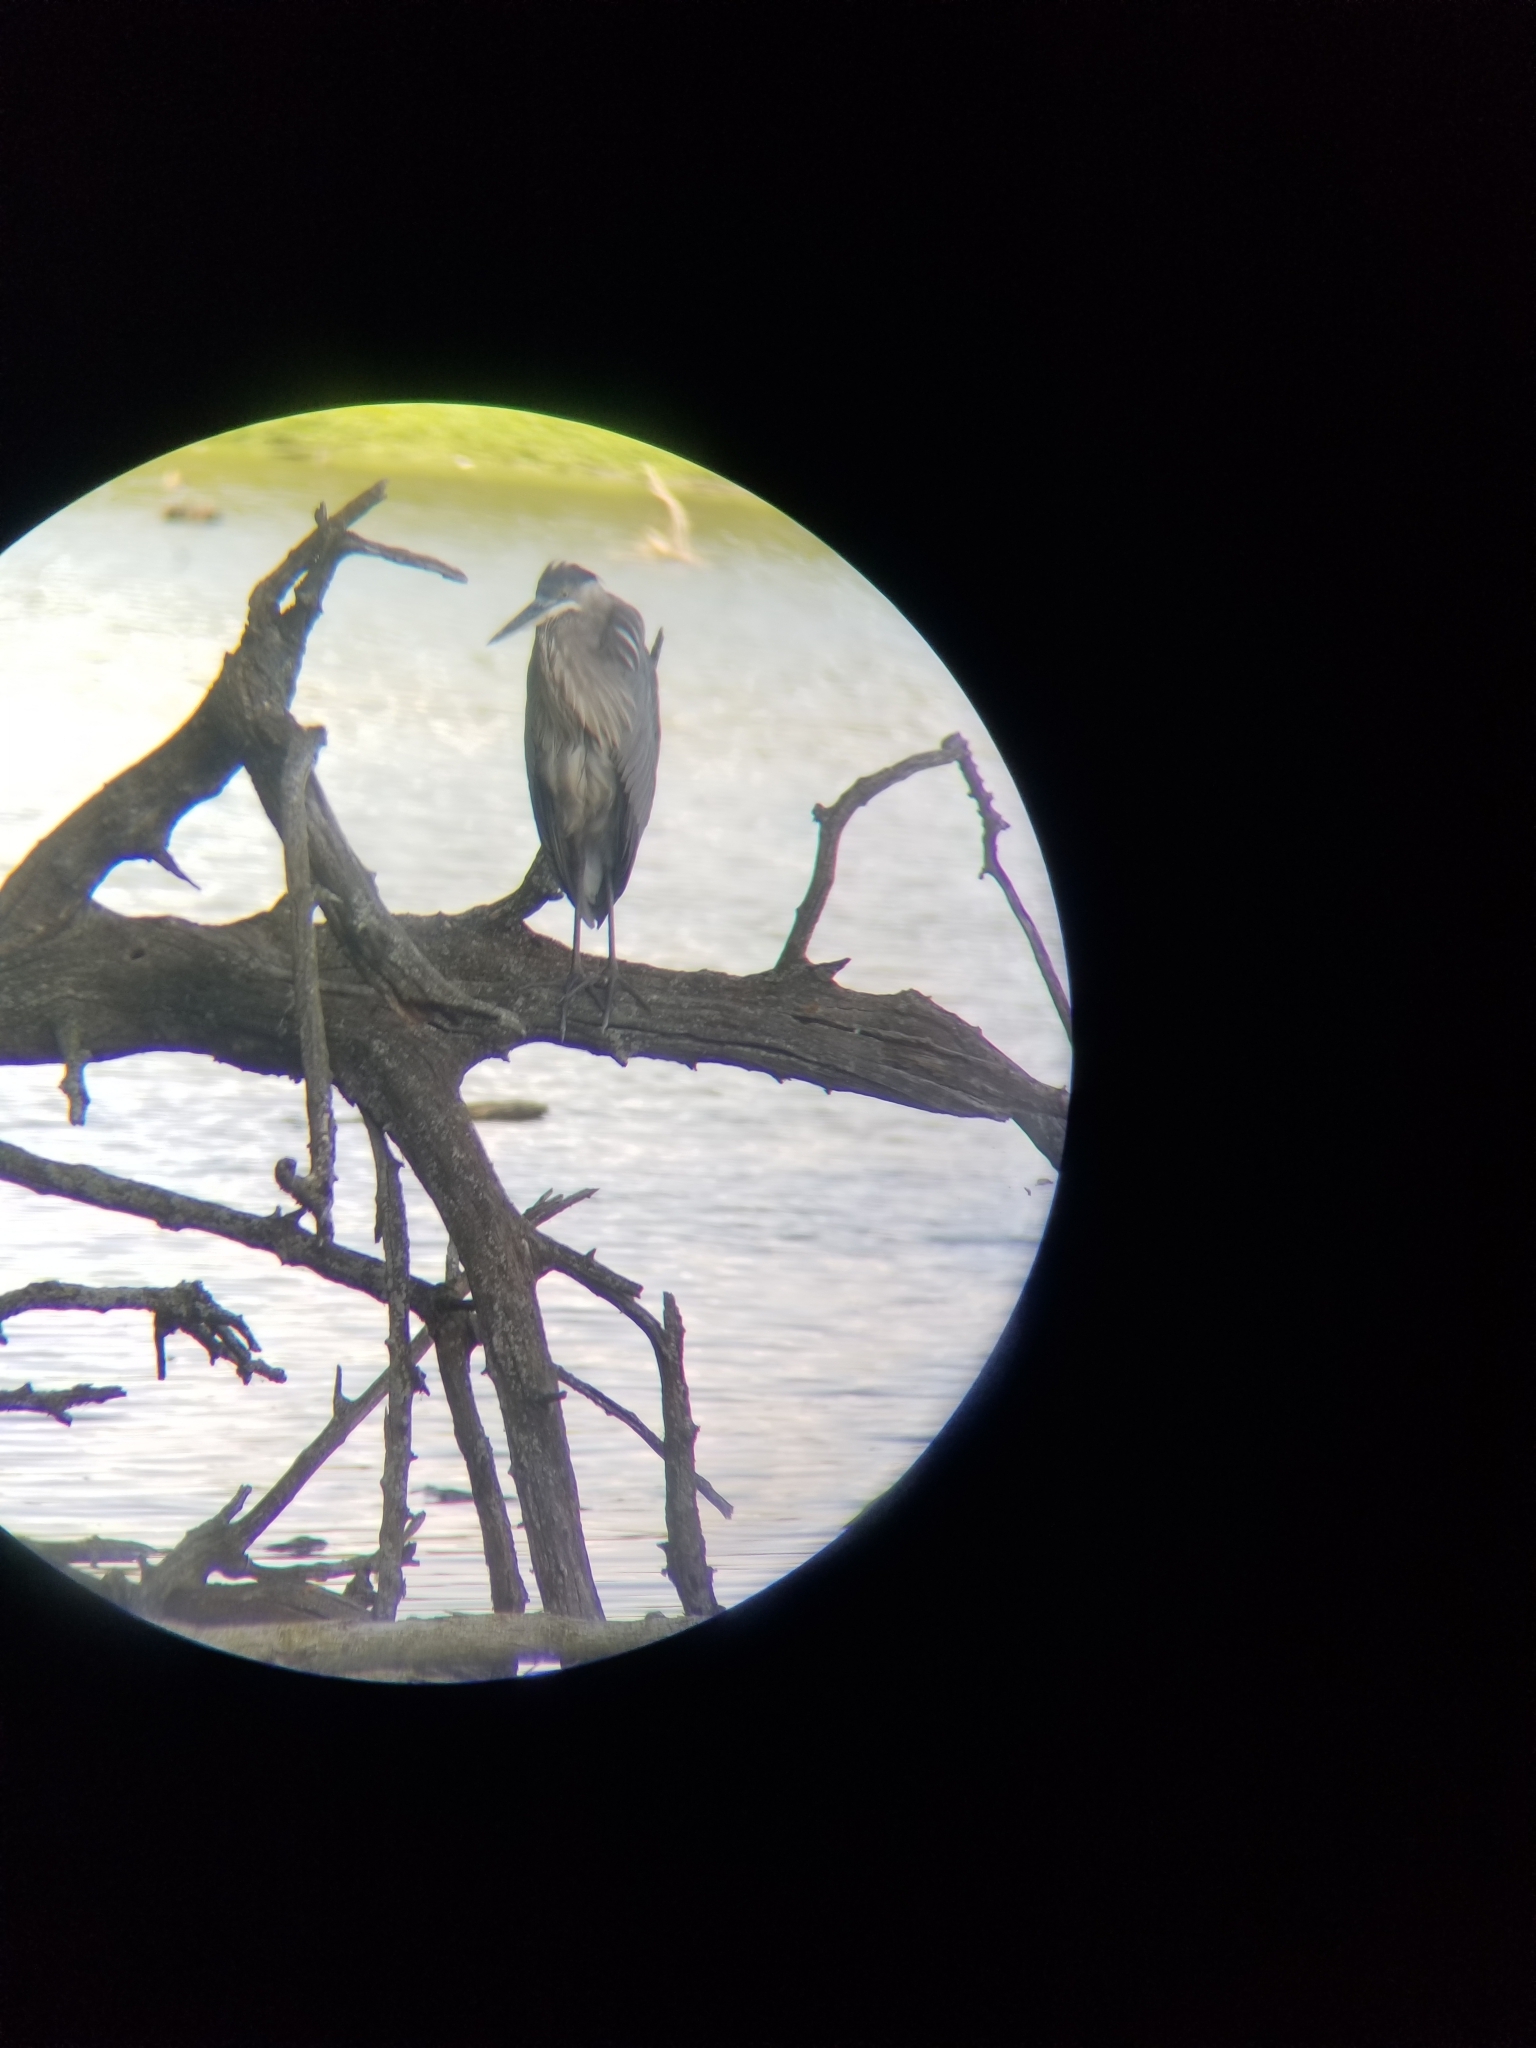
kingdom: Animalia
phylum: Chordata
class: Aves
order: Pelecaniformes
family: Ardeidae
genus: Ardea
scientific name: Ardea herodias
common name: Great blue heron
